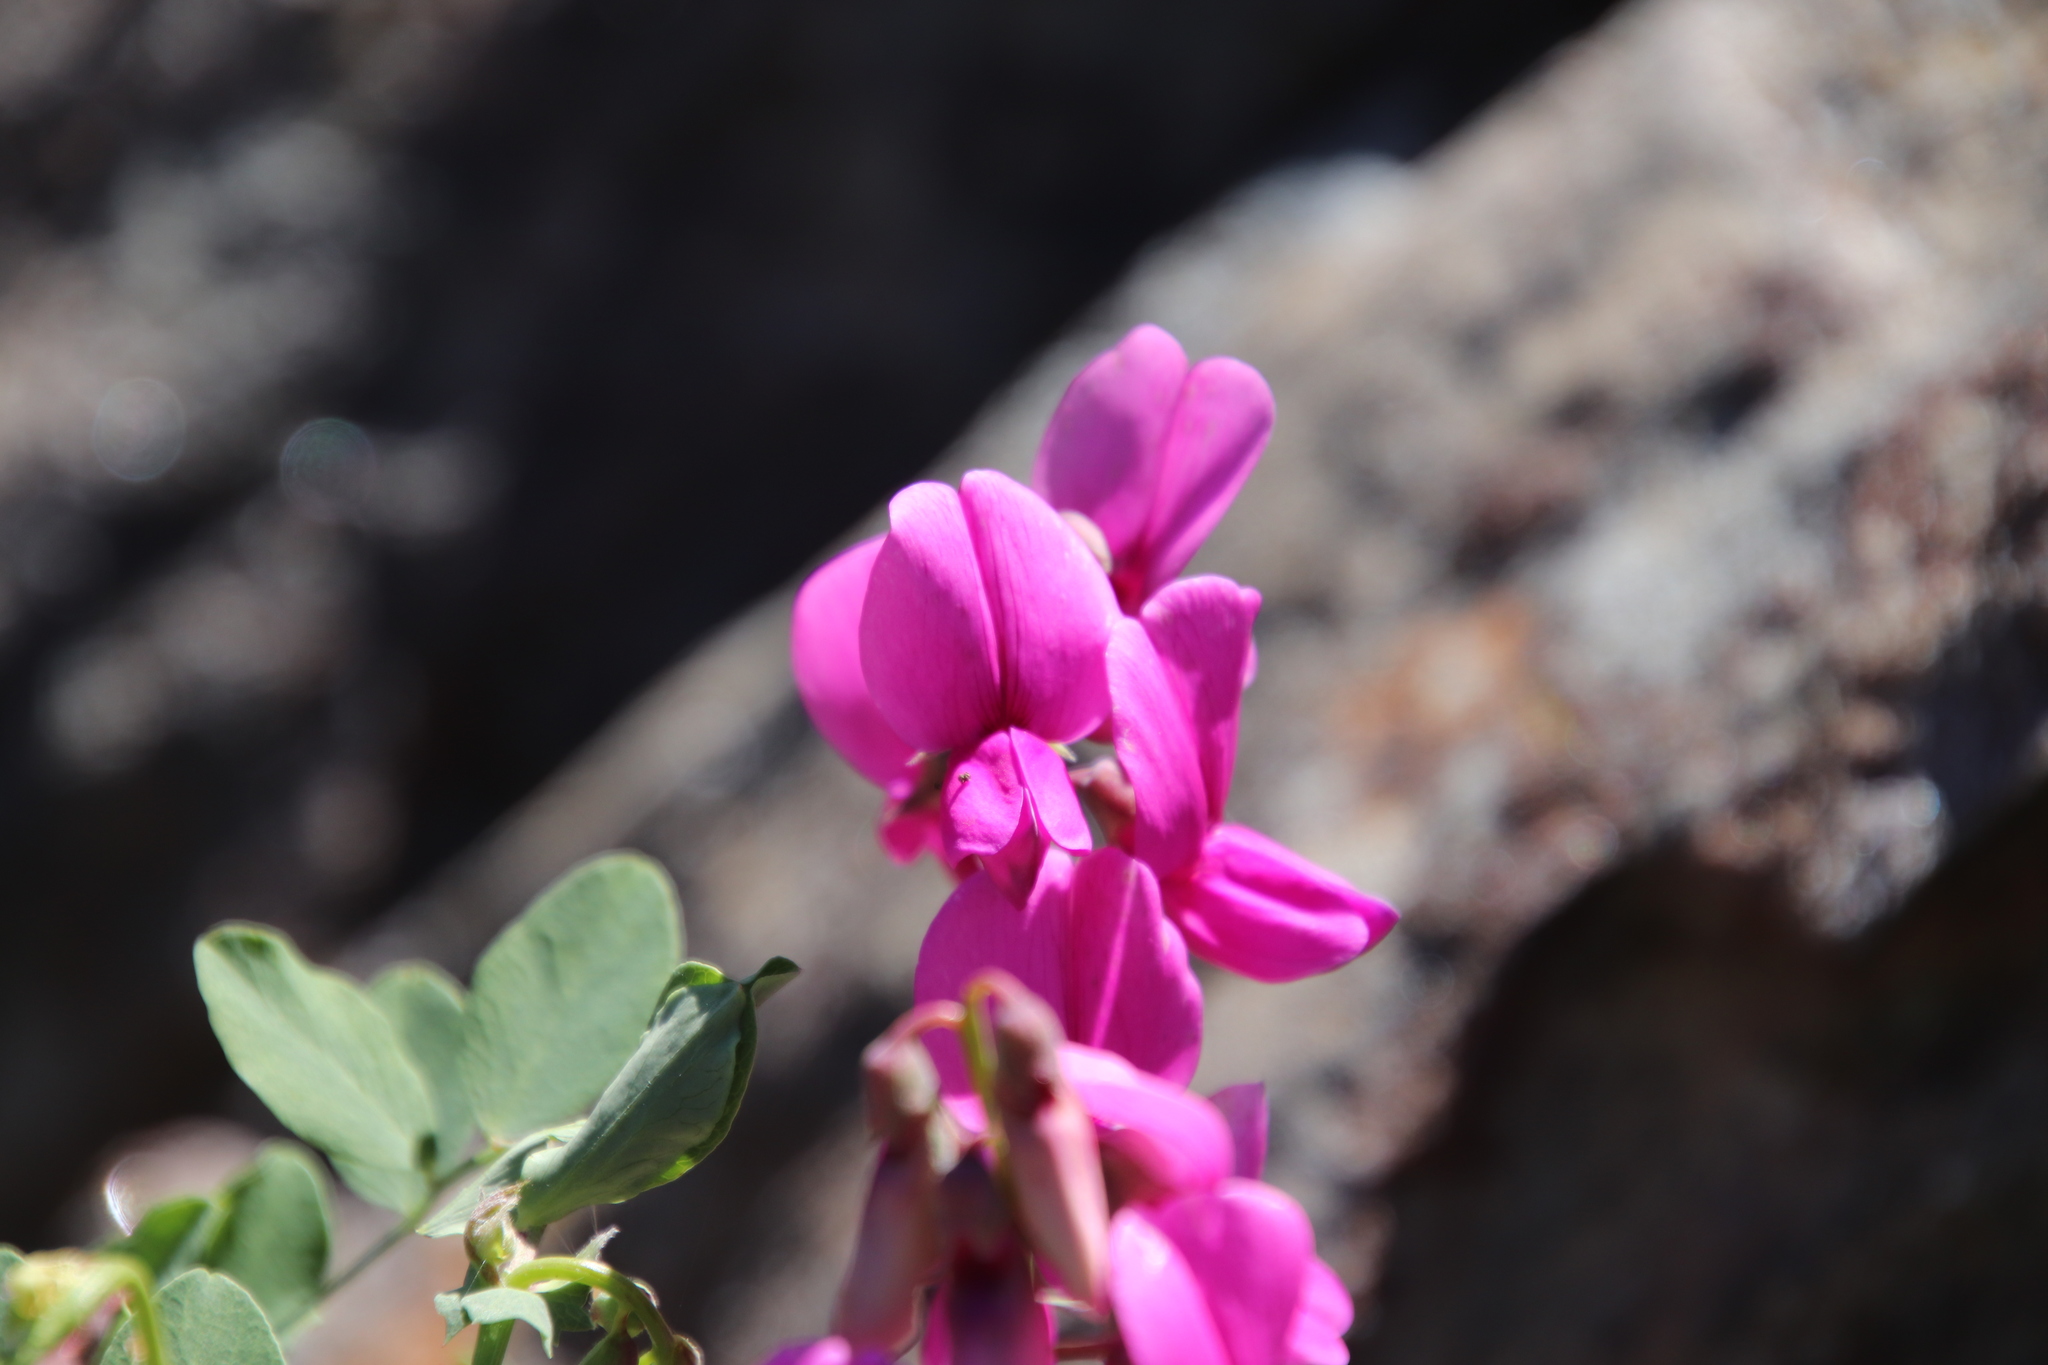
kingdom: Plantae
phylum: Tracheophyta
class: Magnoliopsida
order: Fabales
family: Fabaceae
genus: Lathyrus
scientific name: Lathyrus vestitus
